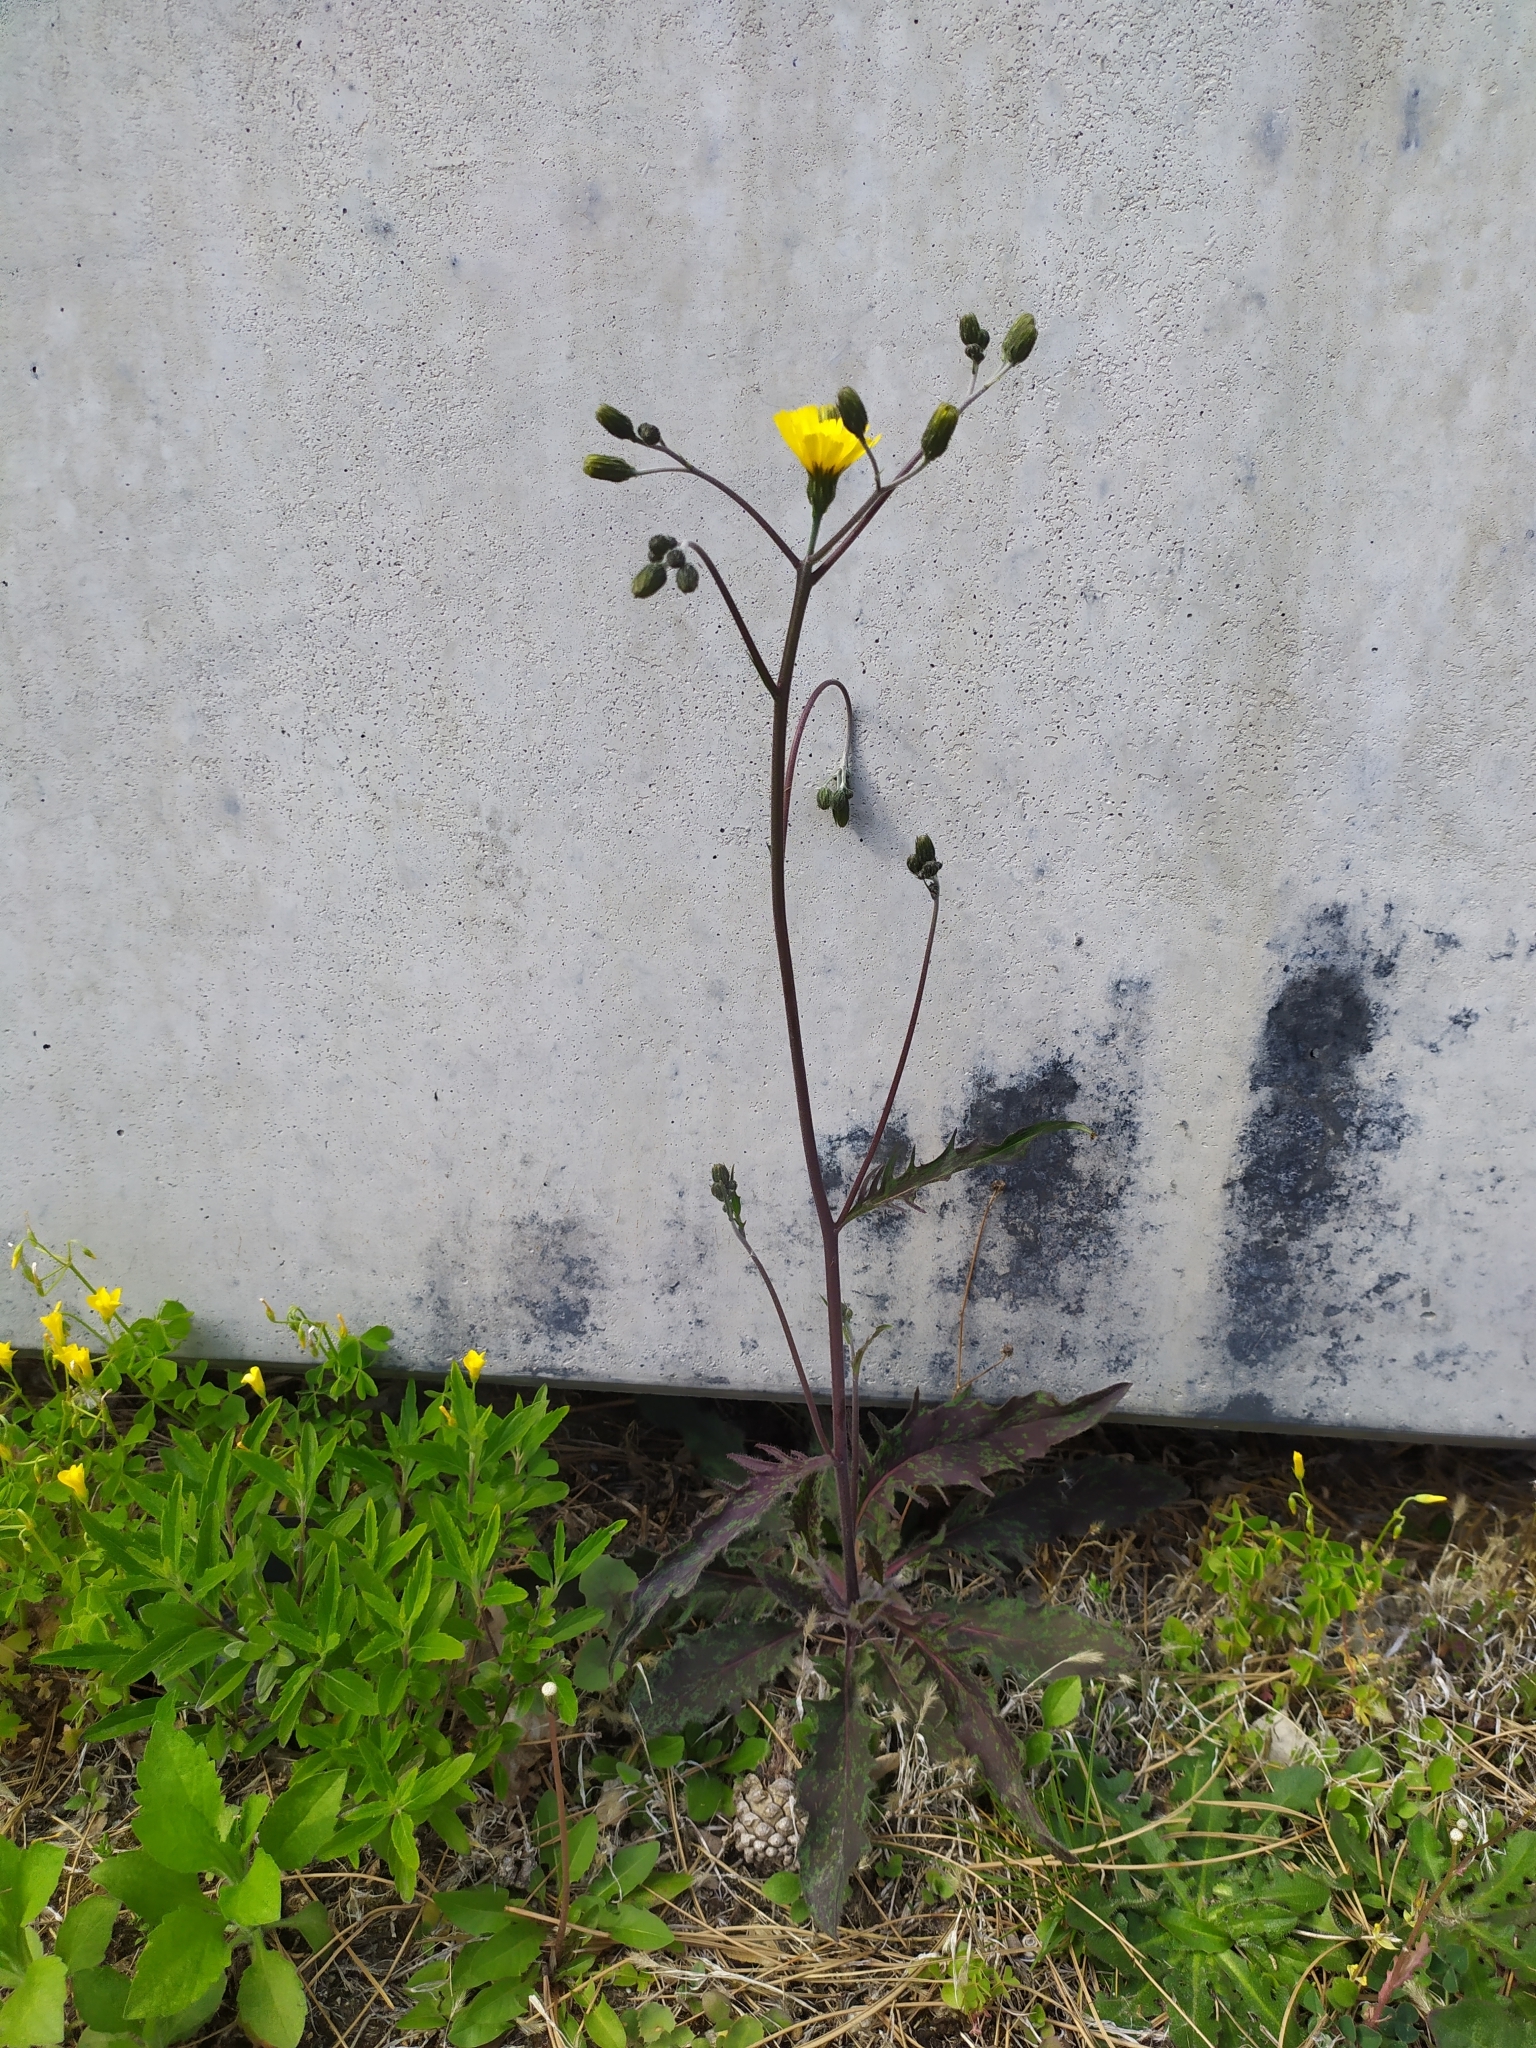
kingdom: Plantae
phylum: Tracheophyta
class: Magnoliopsida
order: Asterales
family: Asteraceae
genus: Hieracium
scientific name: Hieracium maculatum
